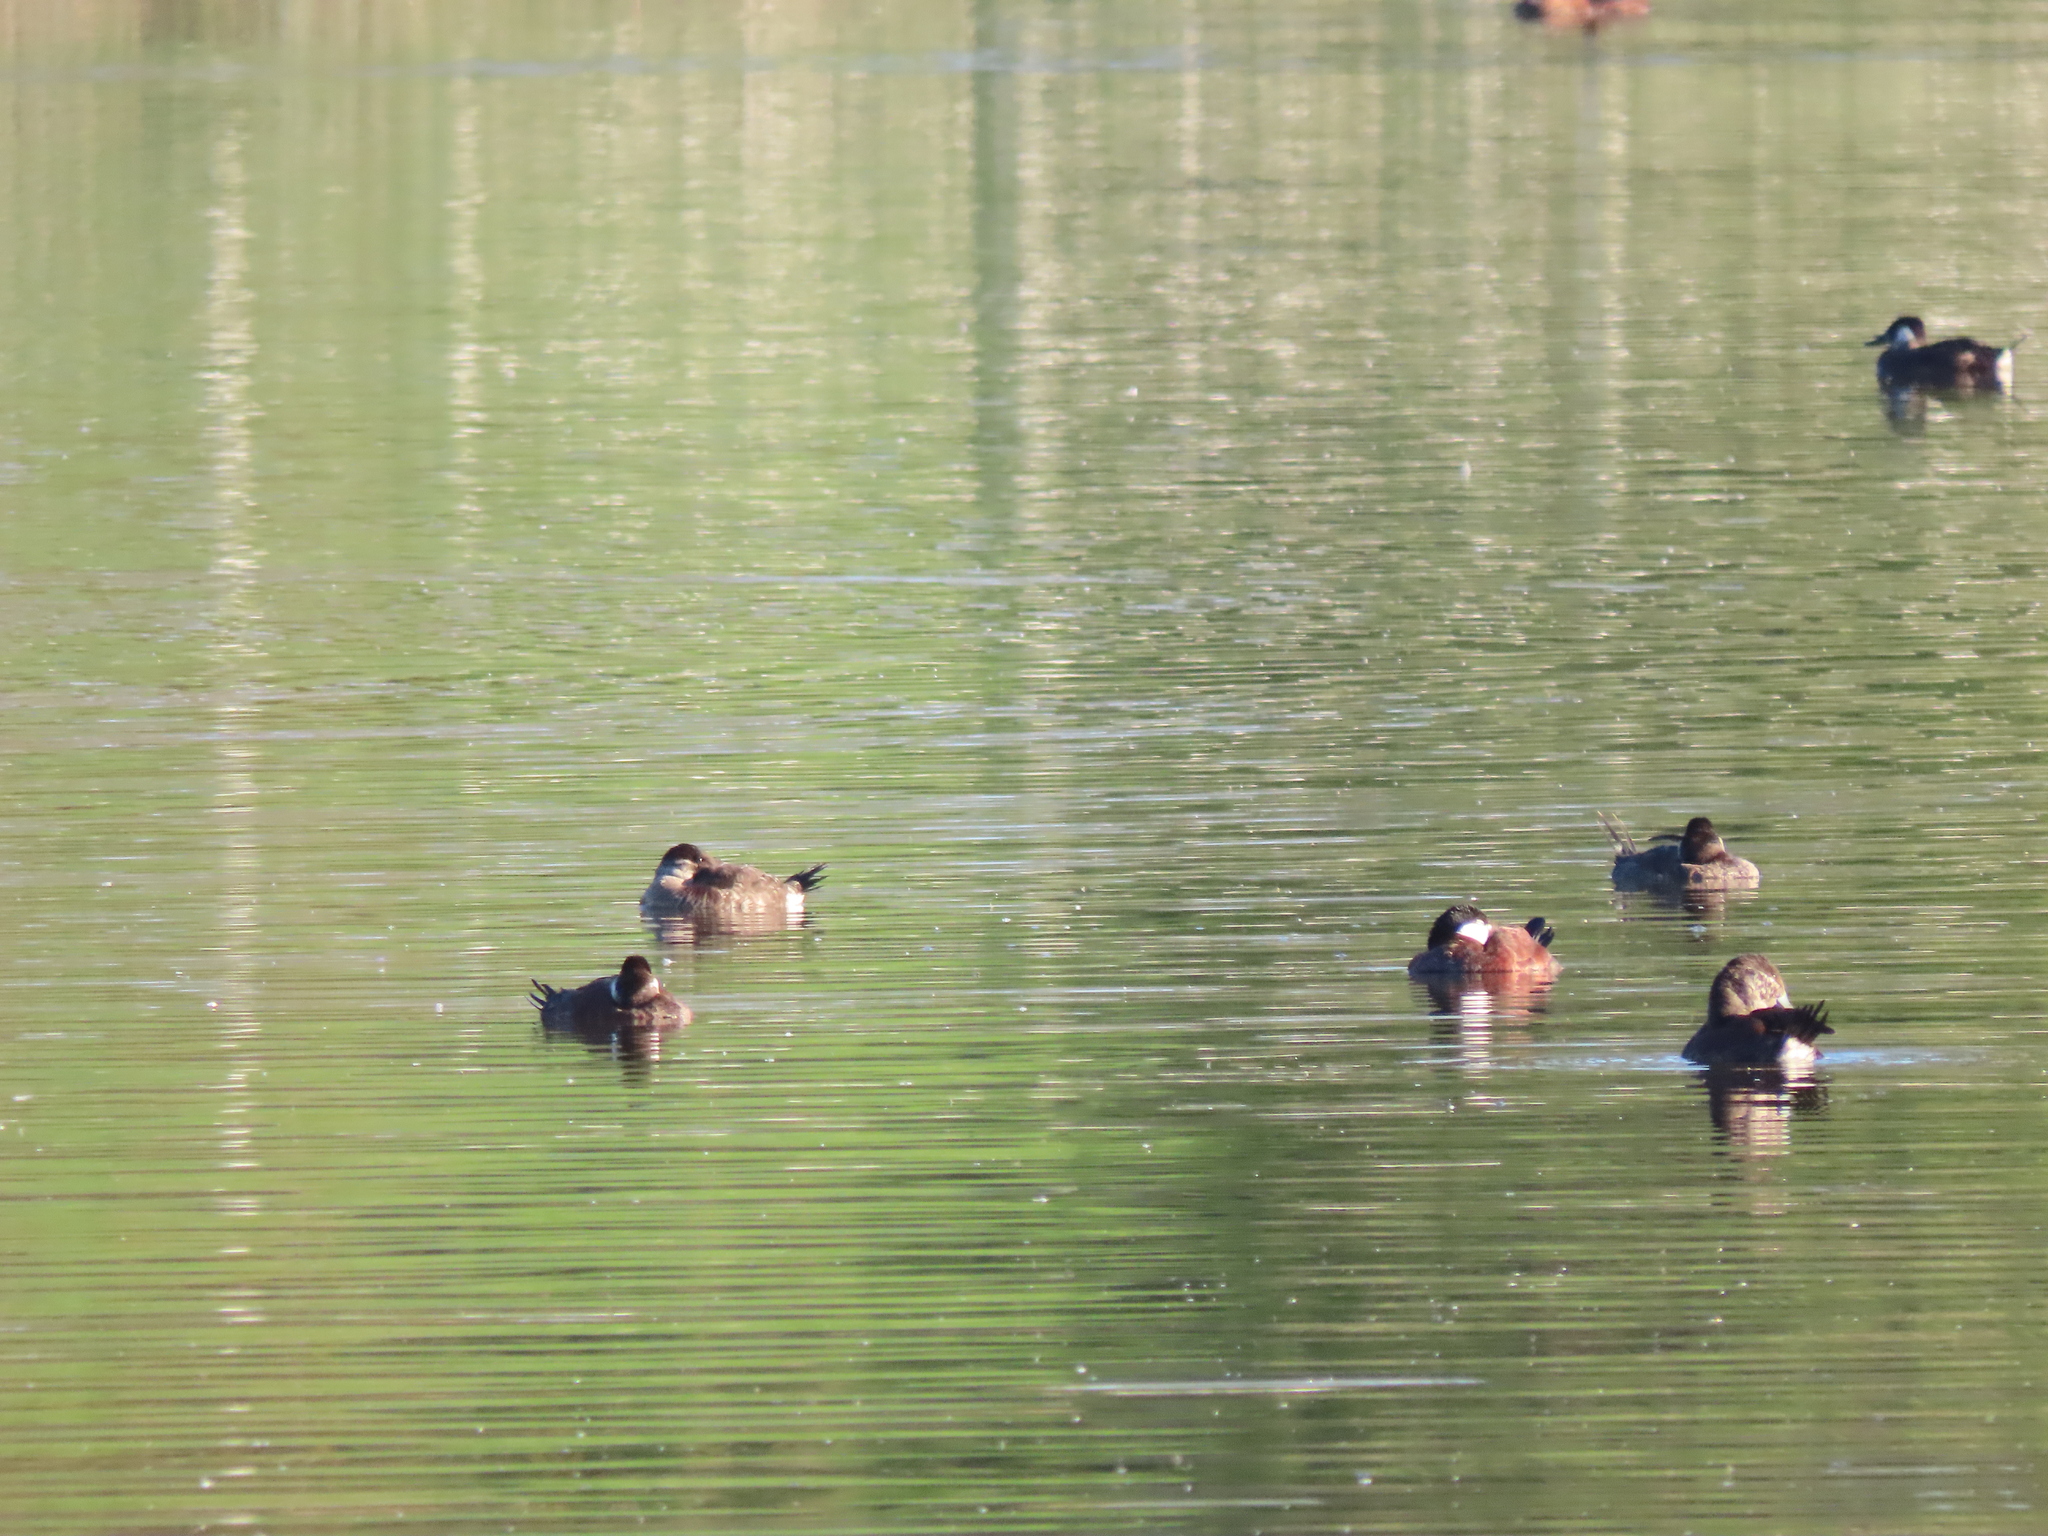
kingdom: Animalia
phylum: Chordata
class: Aves
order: Anseriformes
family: Anatidae
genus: Oxyura
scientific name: Oxyura jamaicensis
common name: Ruddy duck
